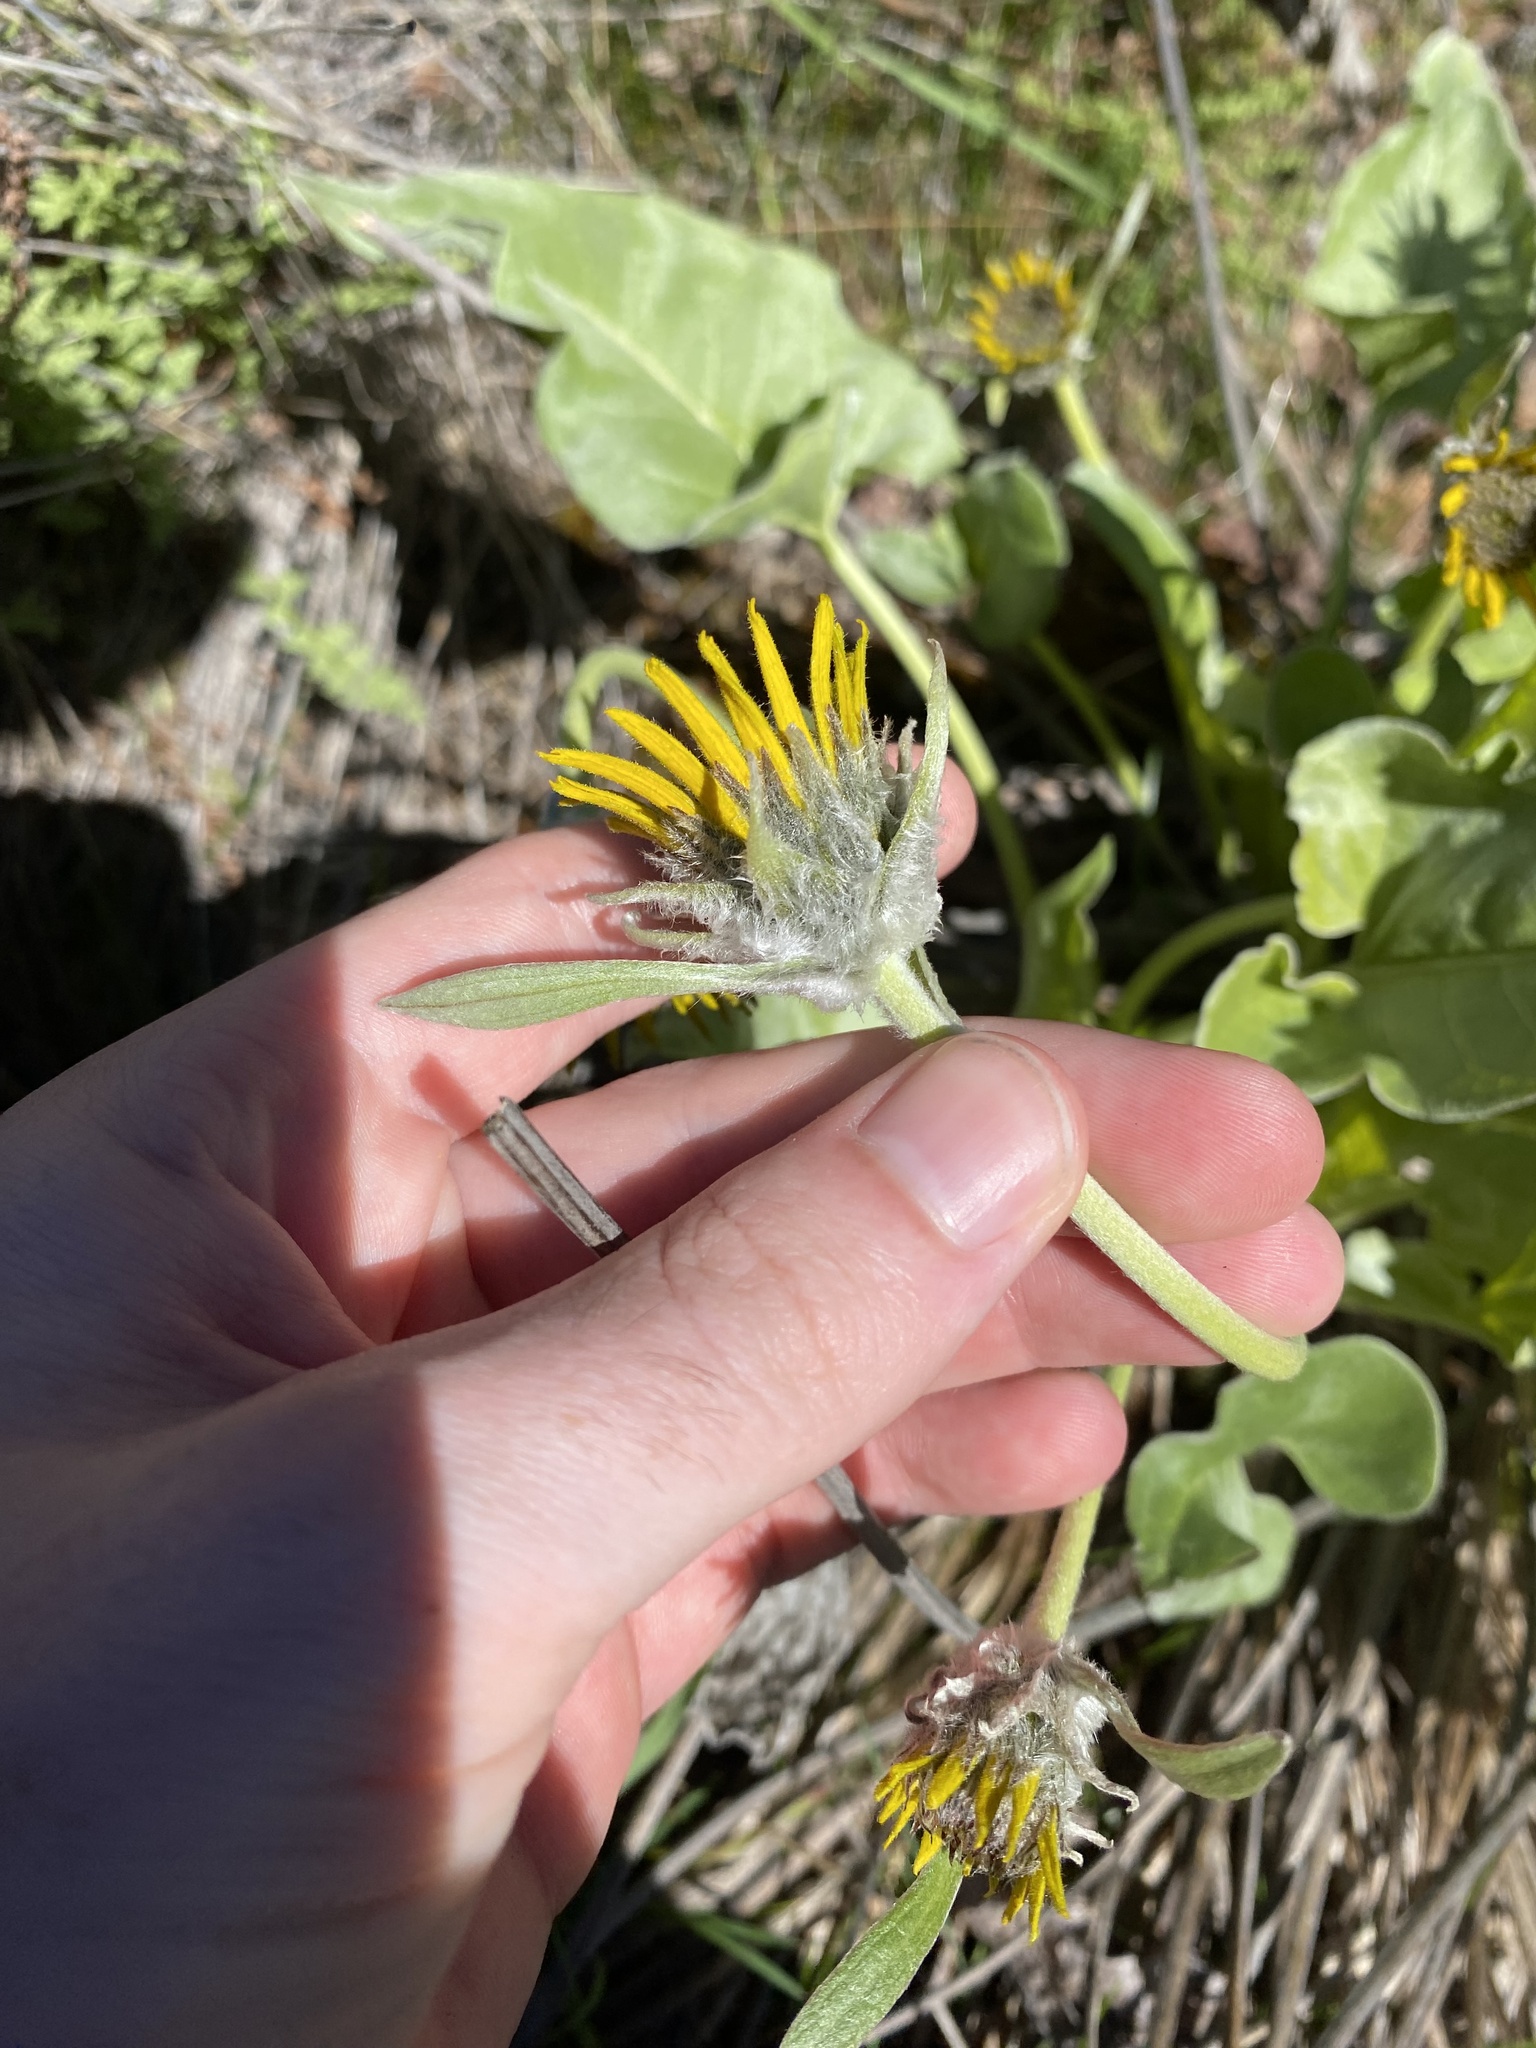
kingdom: Plantae
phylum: Tracheophyta
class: Magnoliopsida
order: Asterales
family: Asteraceae
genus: Wyethia
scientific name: Wyethia sagittata
